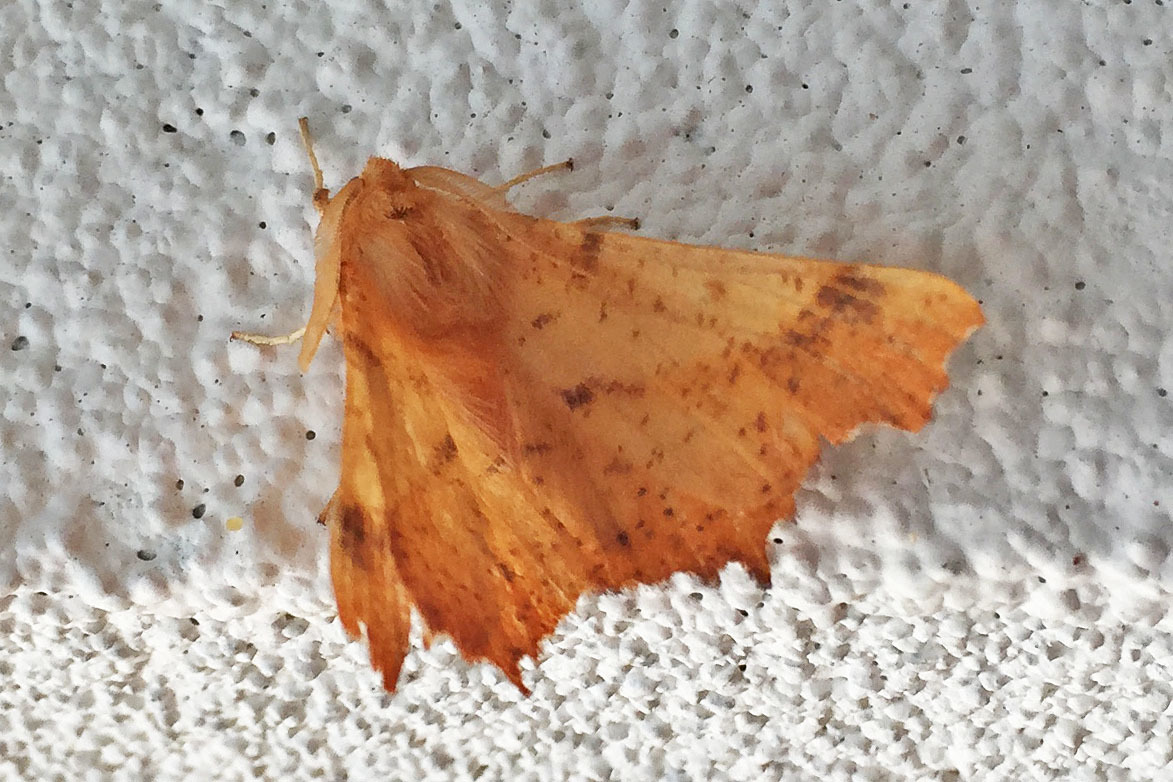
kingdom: Animalia
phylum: Arthropoda
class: Insecta
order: Lepidoptera
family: Geometridae
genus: Ennomos
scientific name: Ennomos magnaria
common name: Maple spanworm
